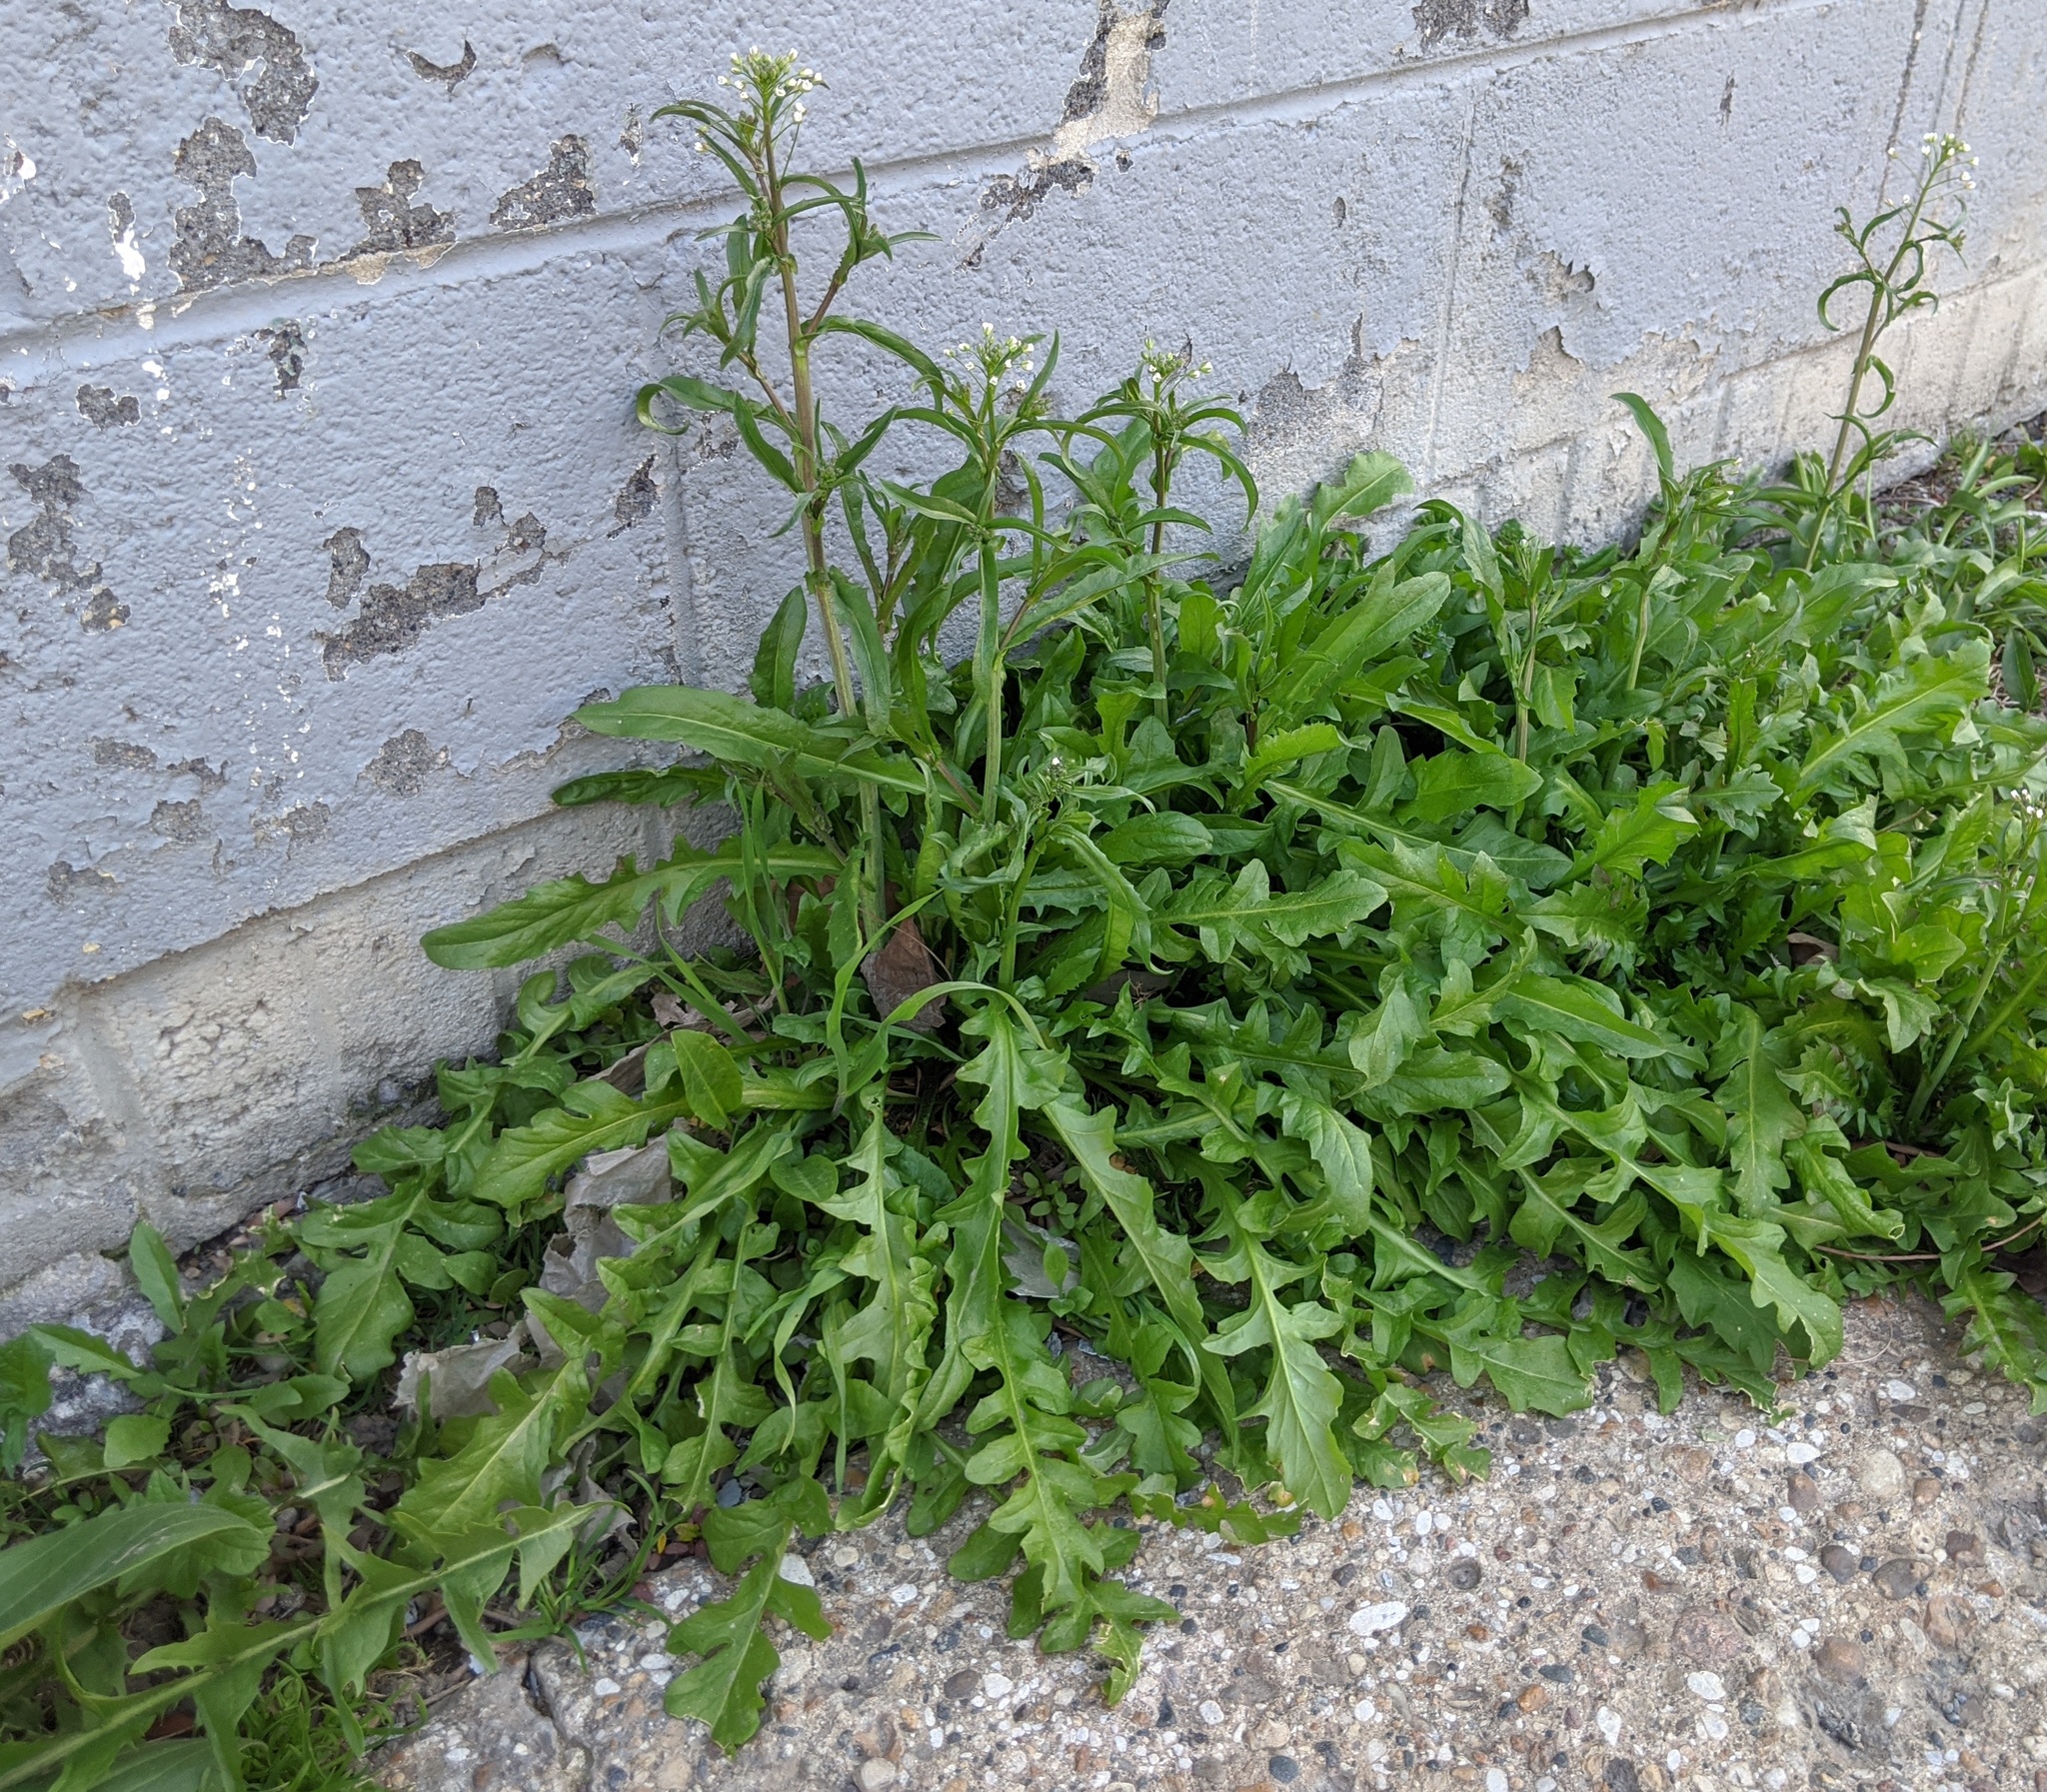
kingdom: Plantae
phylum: Tracheophyta
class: Magnoliopsida
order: Brassicales
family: Brassicaceae
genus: Capsella
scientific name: Capsella bursa-pastoris
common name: Shepherd's purse
